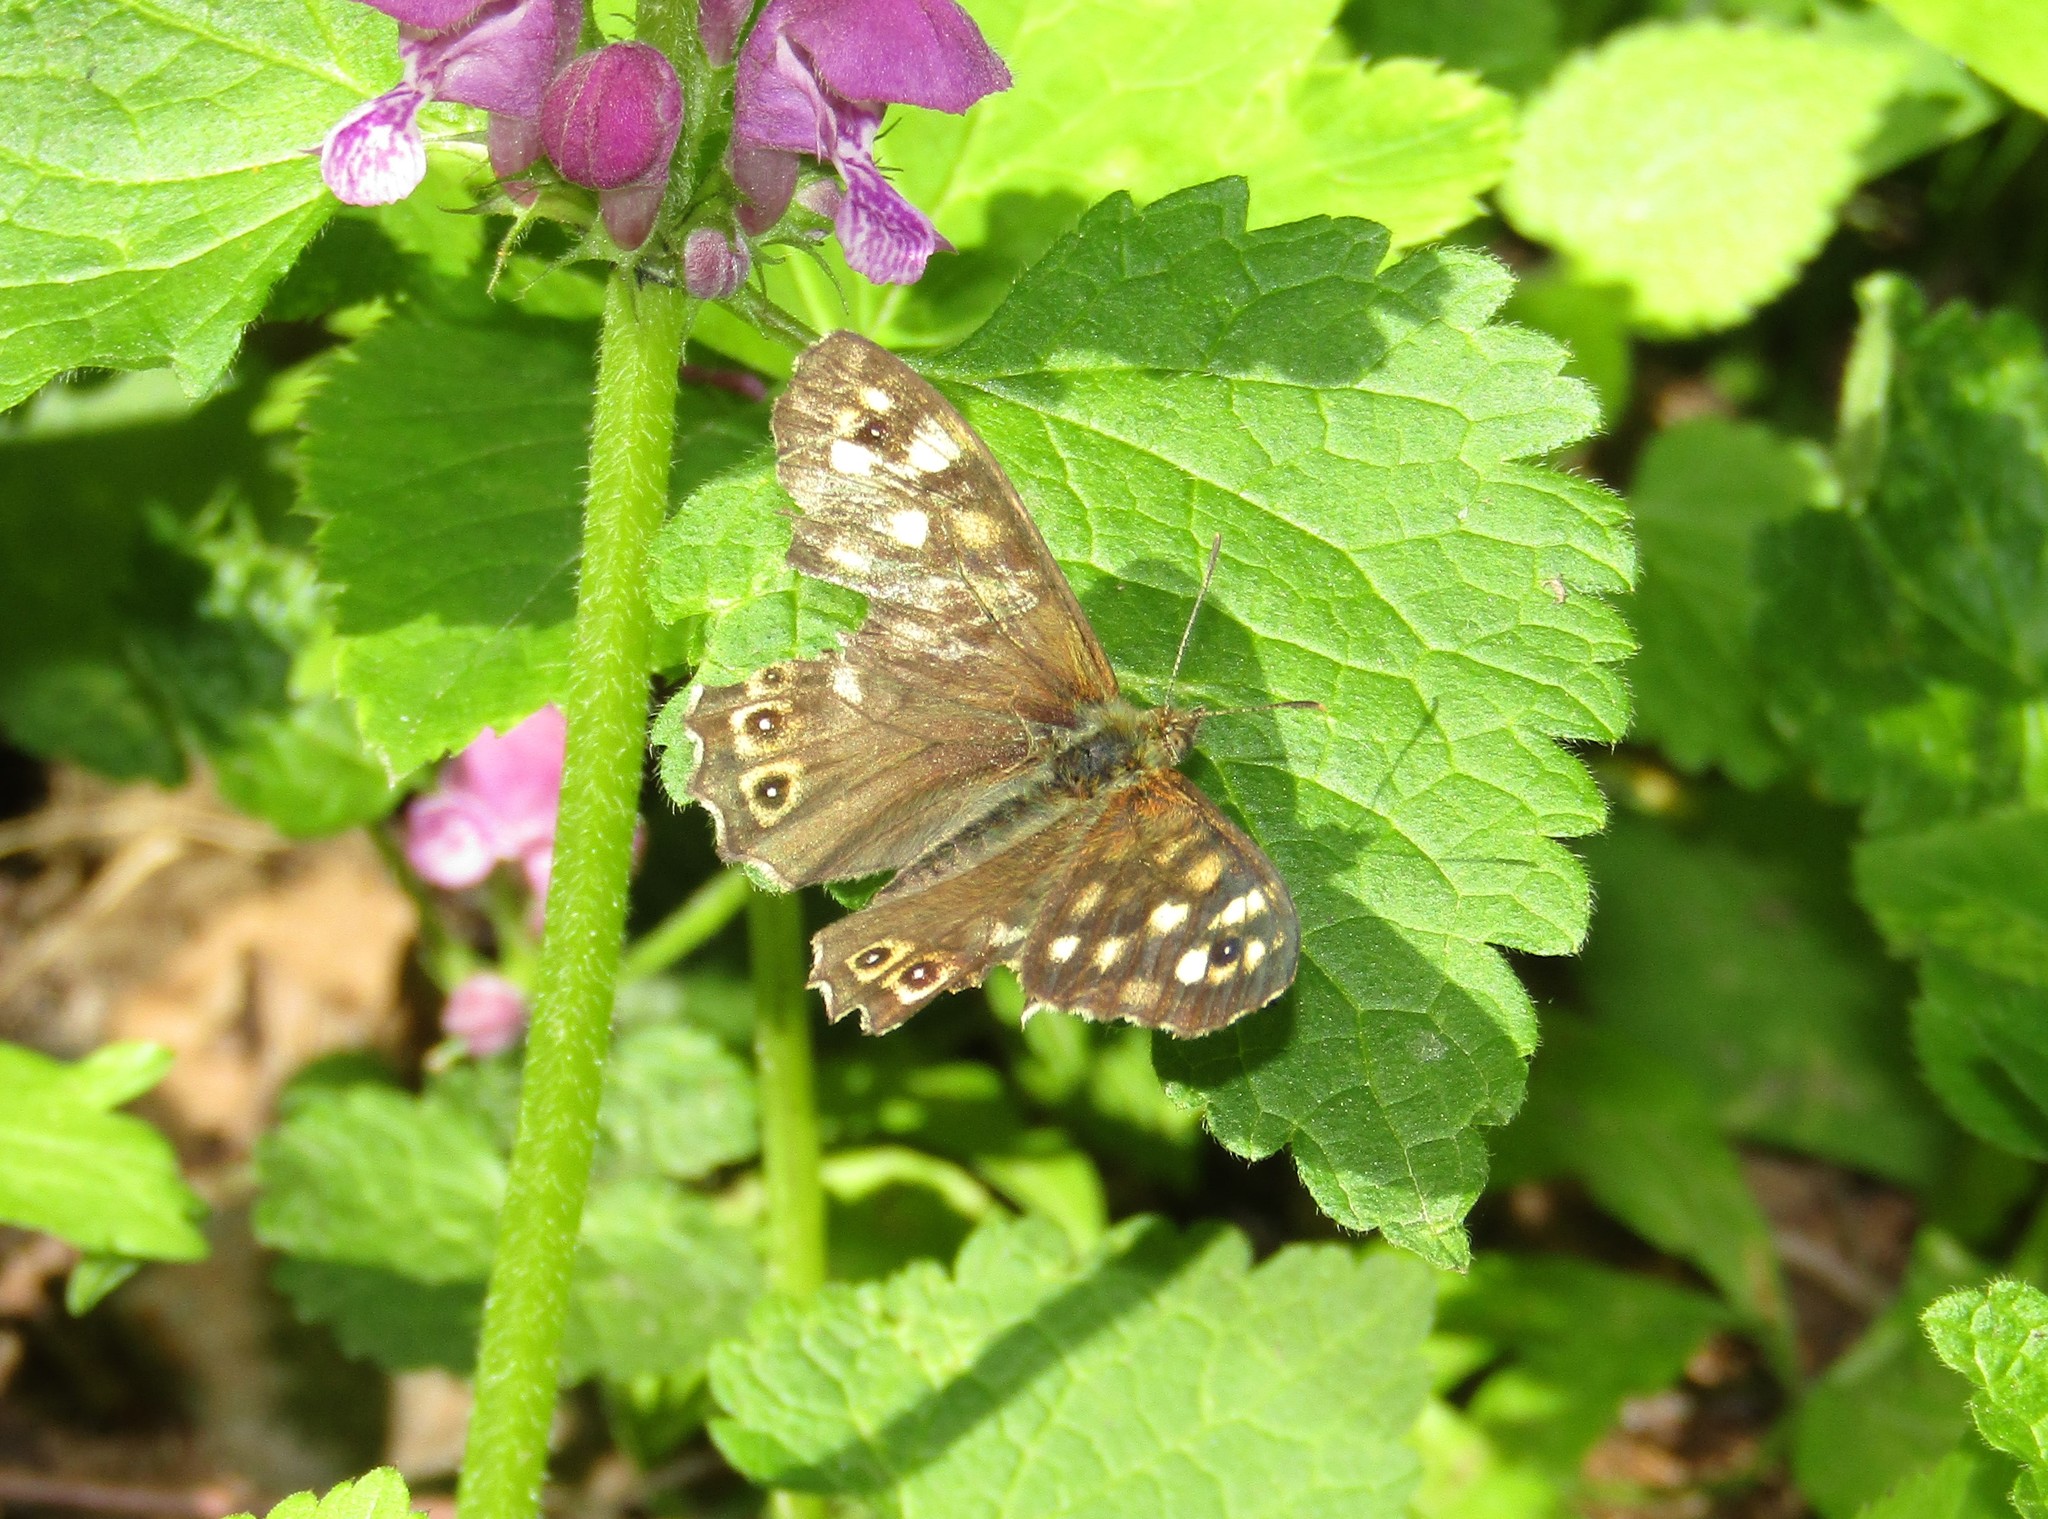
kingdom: Animalia
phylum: Arthropoda
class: Insecta
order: Lepidoptera
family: Nymphalidae
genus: Pararge
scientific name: Pararge aegeria
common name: Speckled wood
